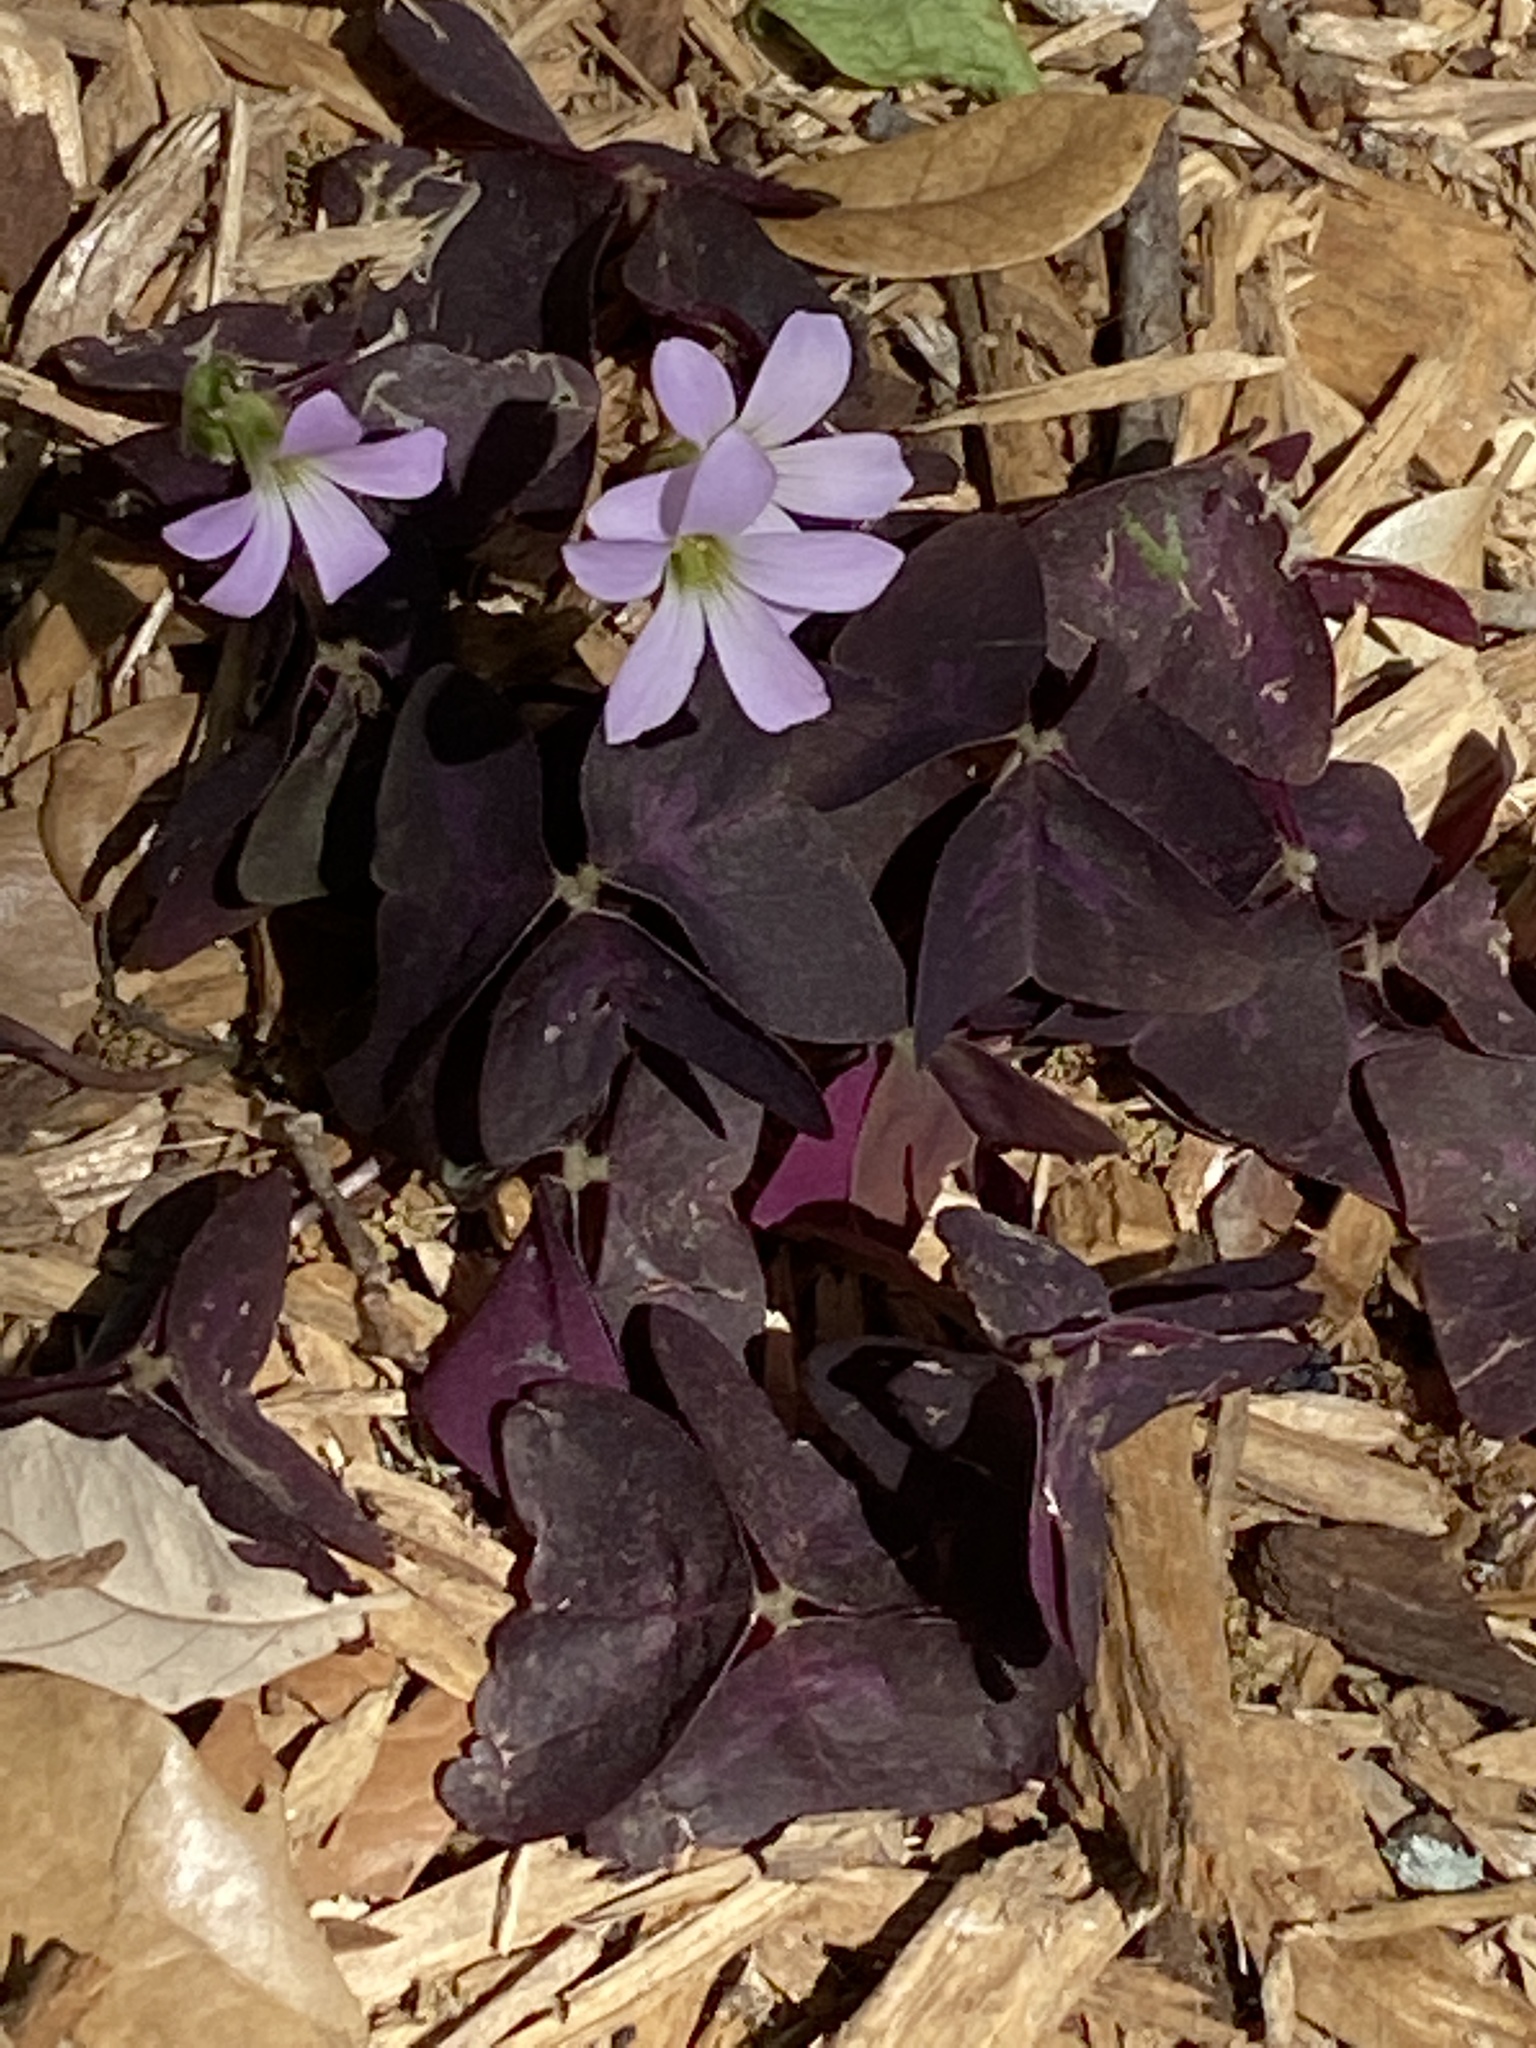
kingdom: Plantae
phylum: Tracheophyta
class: Magnoliopsida
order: Oxalidales
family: Oxalidaceae
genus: Oxalis
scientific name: Oxalis triangularis
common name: Wood sorrel
